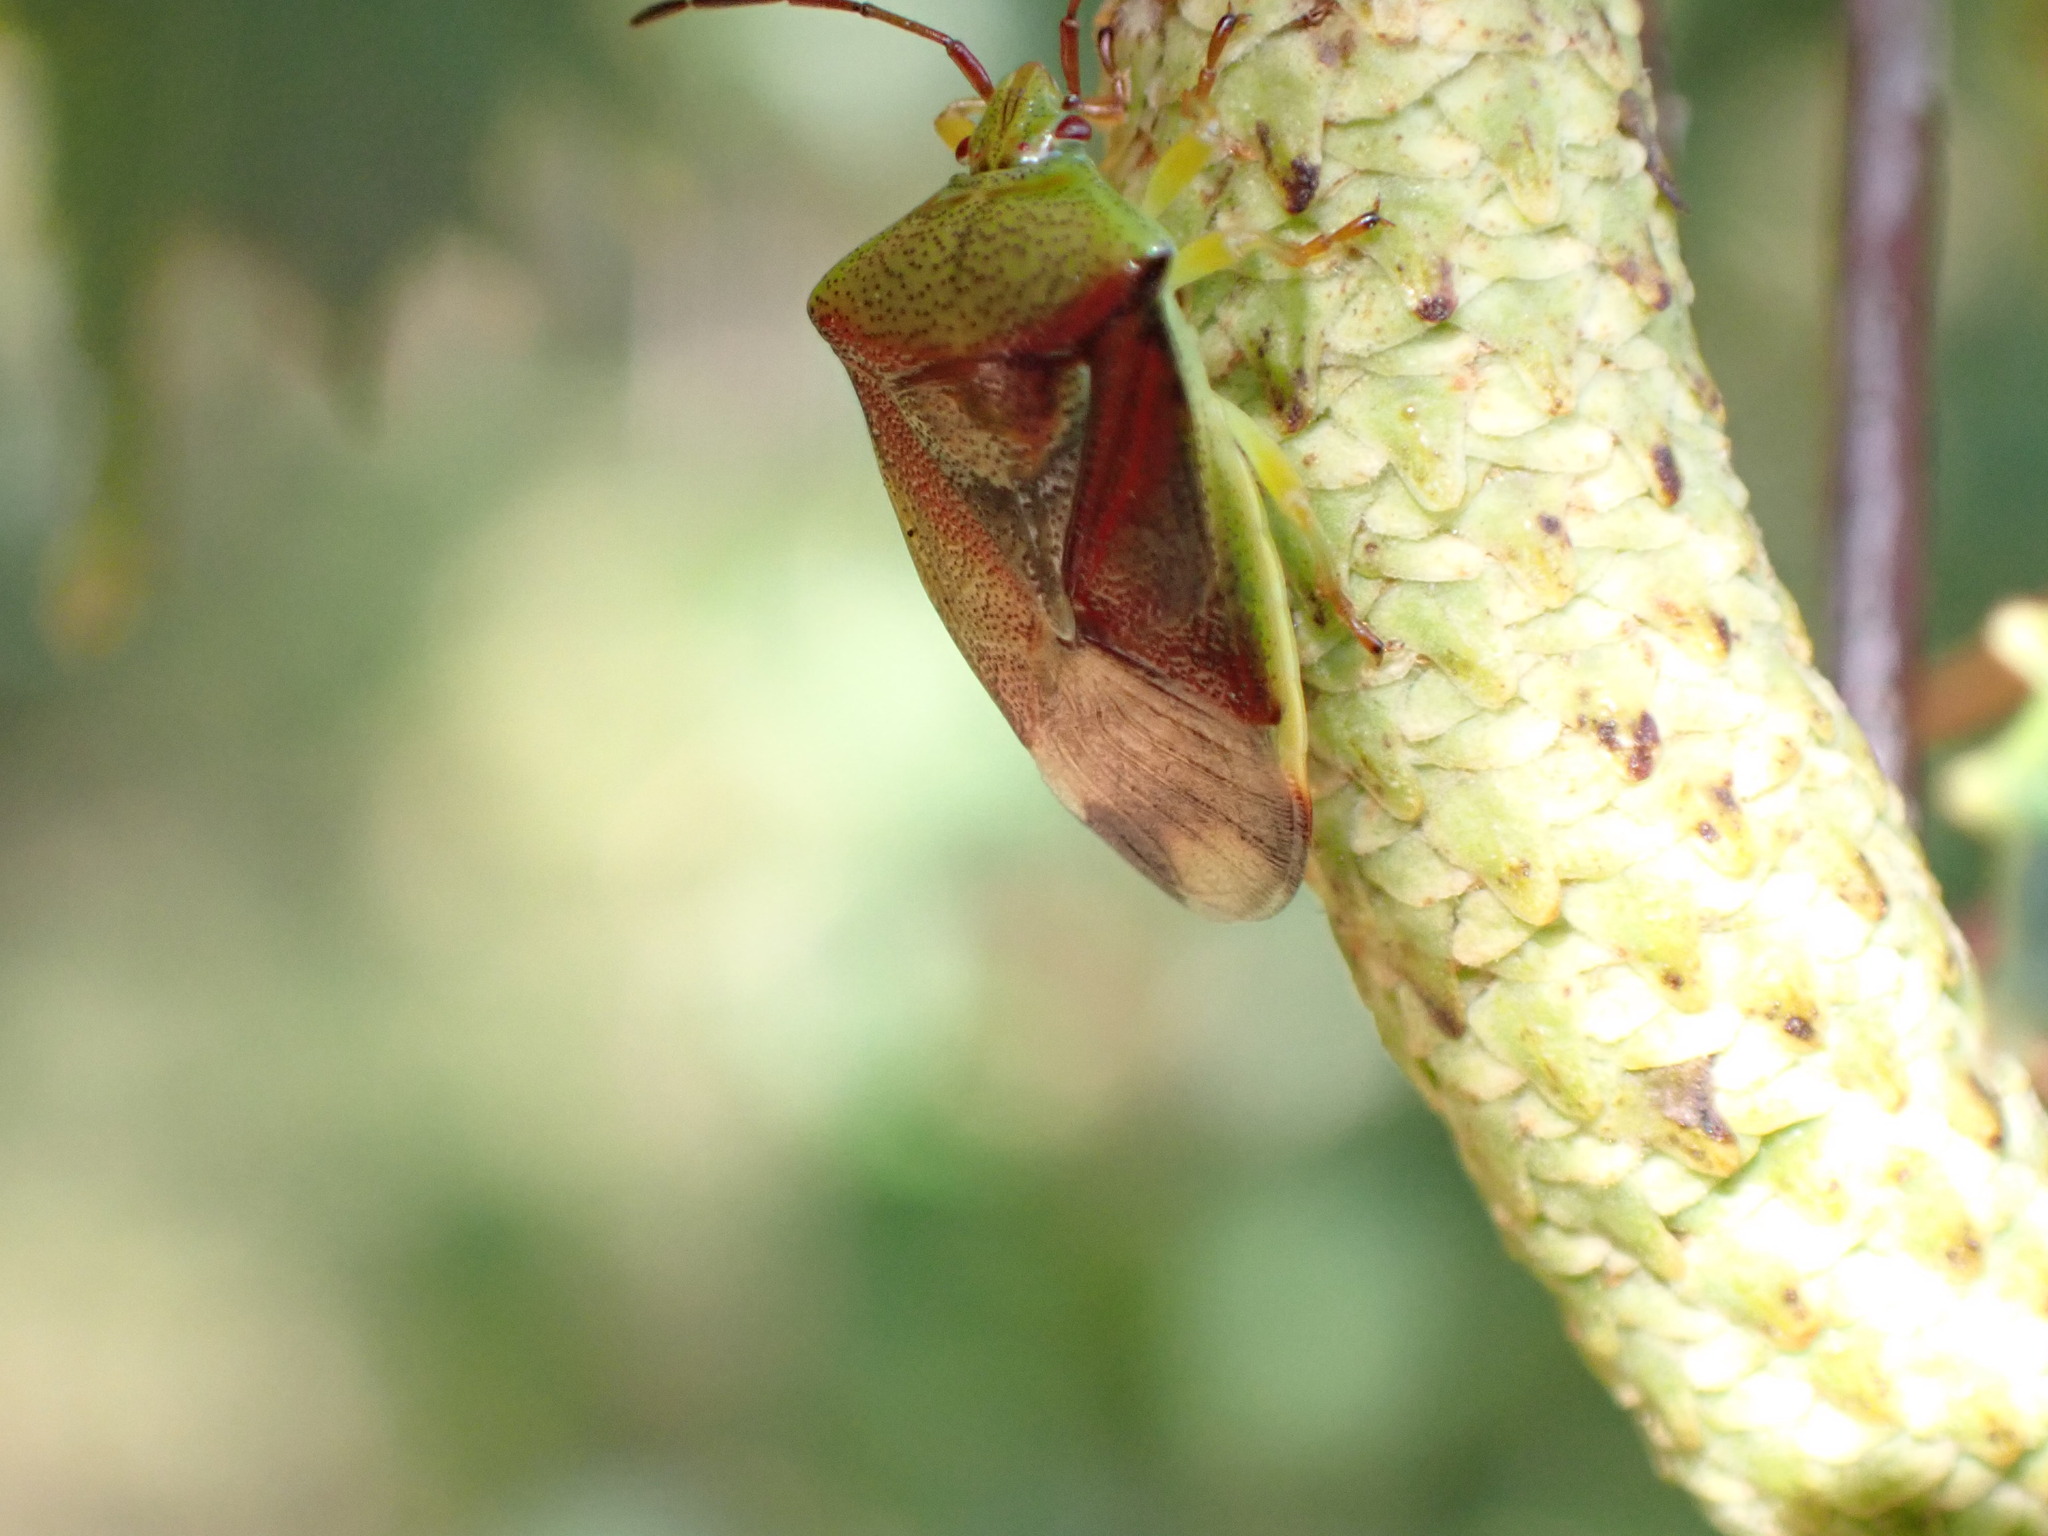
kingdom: Animalia
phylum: Arthropoda
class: Insecta
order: Hemiptera
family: Acanthosomatidae
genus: Elasmostethus
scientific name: Elasmostethus interstinctus
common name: Birch shieldbug
